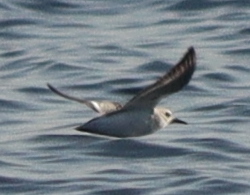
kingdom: Animalia
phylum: Chordata
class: Aves
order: Charadriiformes
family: Scolopacidae
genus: Calidris
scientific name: Calidris alba
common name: Sanderling
